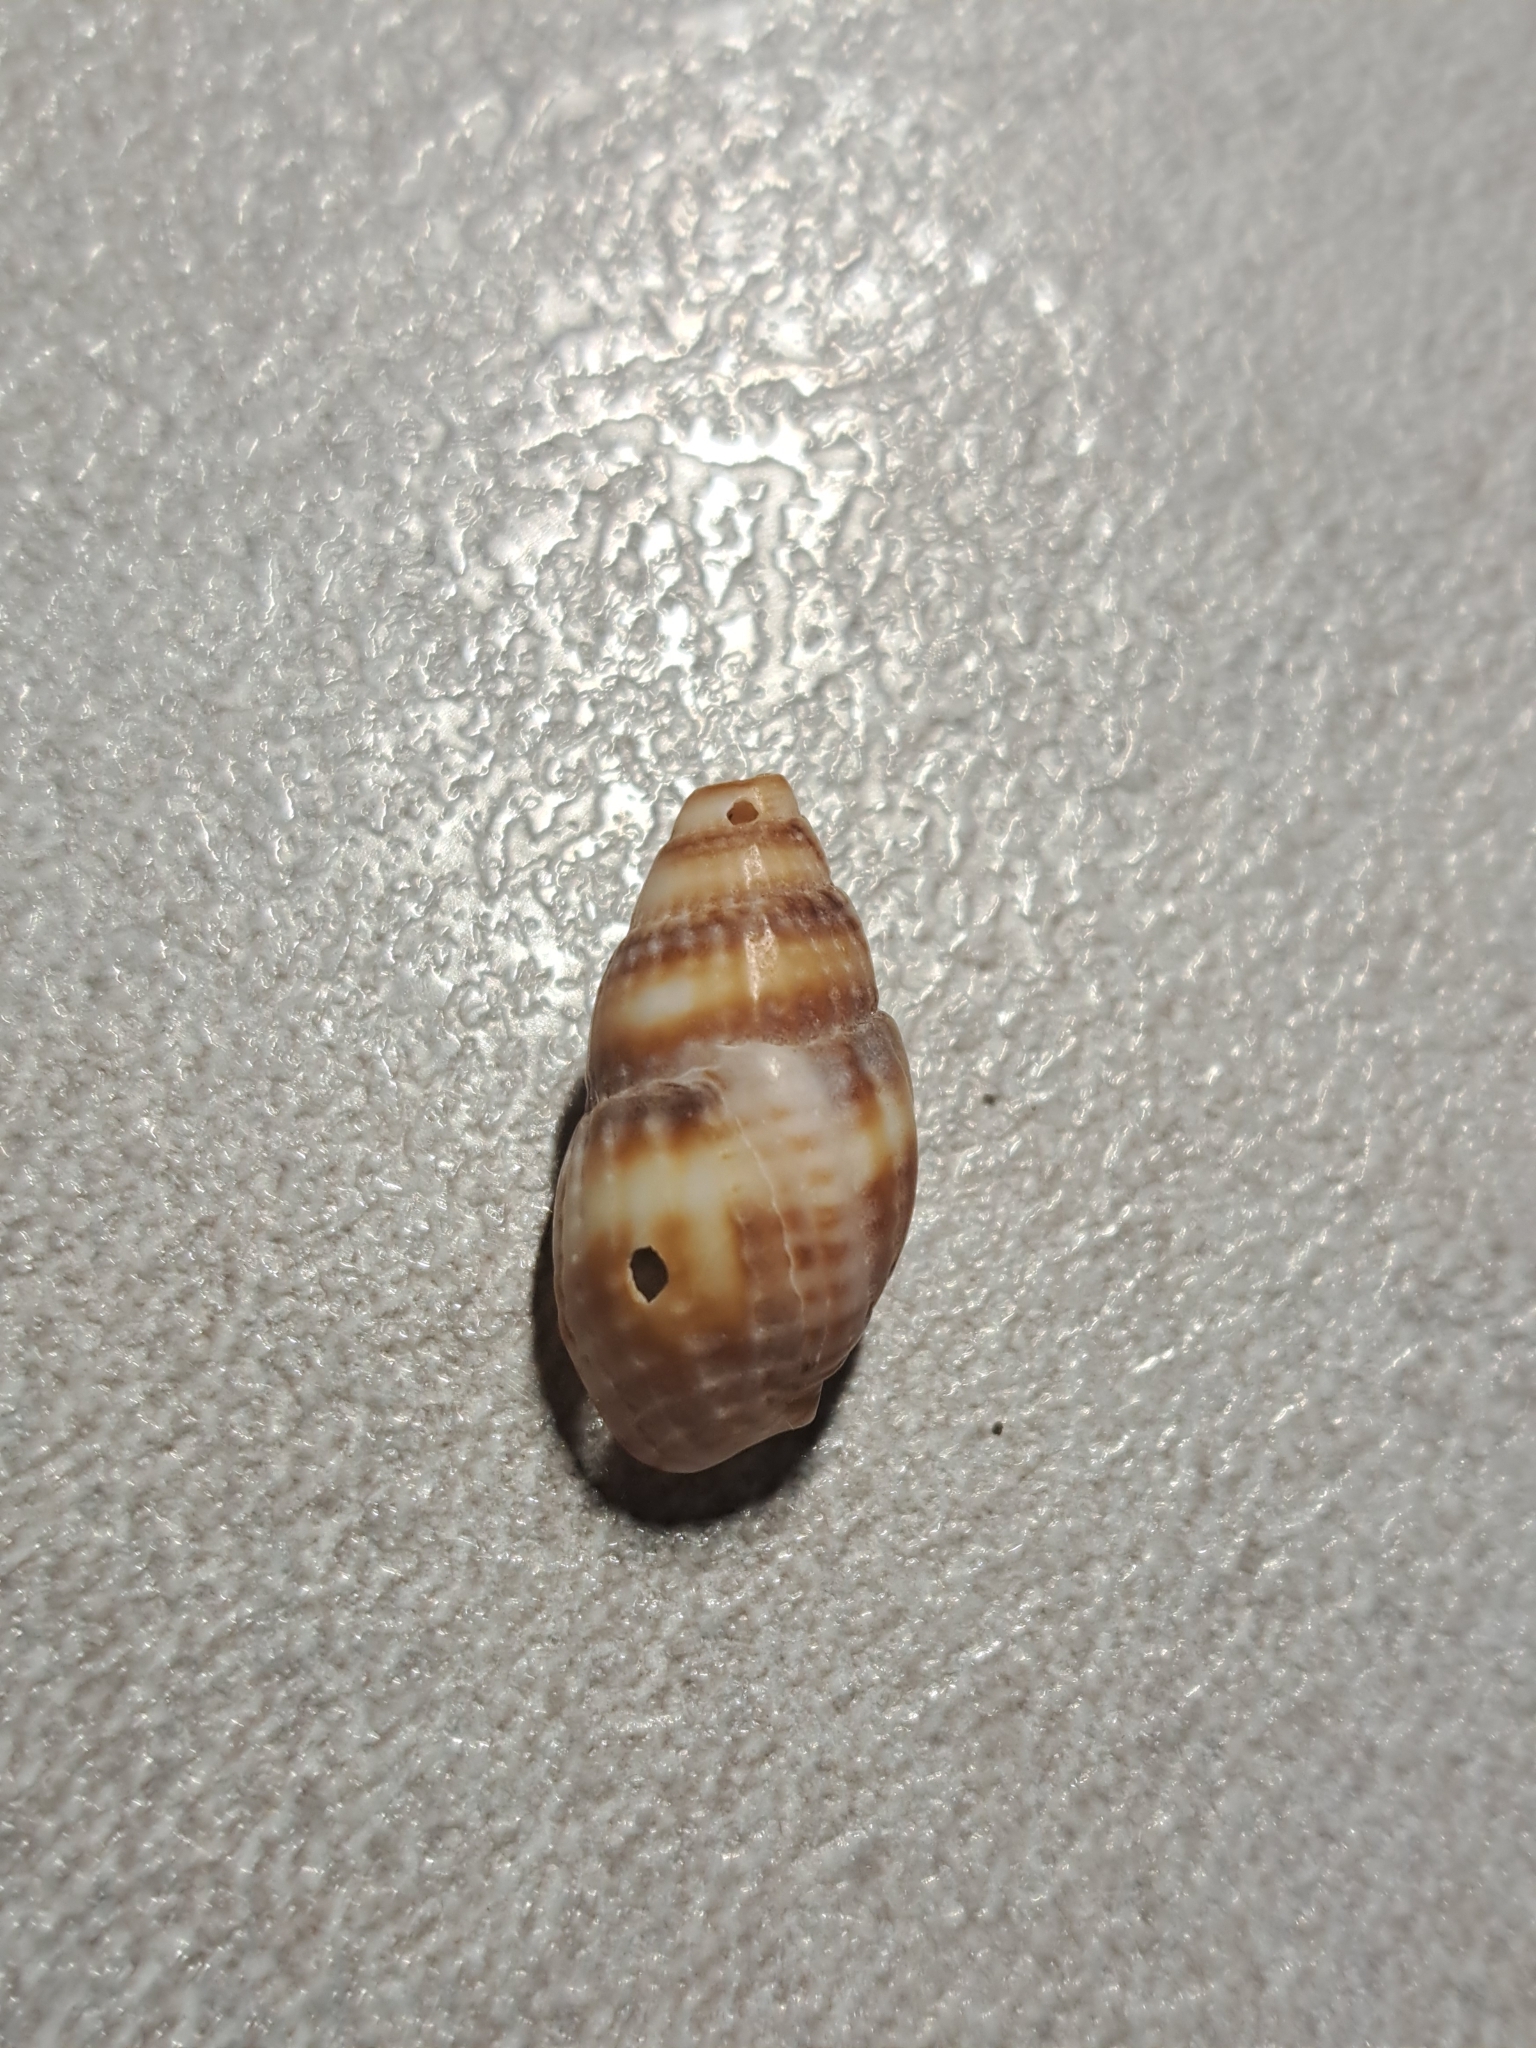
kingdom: Animalia
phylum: Mollusca
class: Gastropoda
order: Neogastropoda
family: Nassariidae
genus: Tritia
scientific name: Tritia nitida
